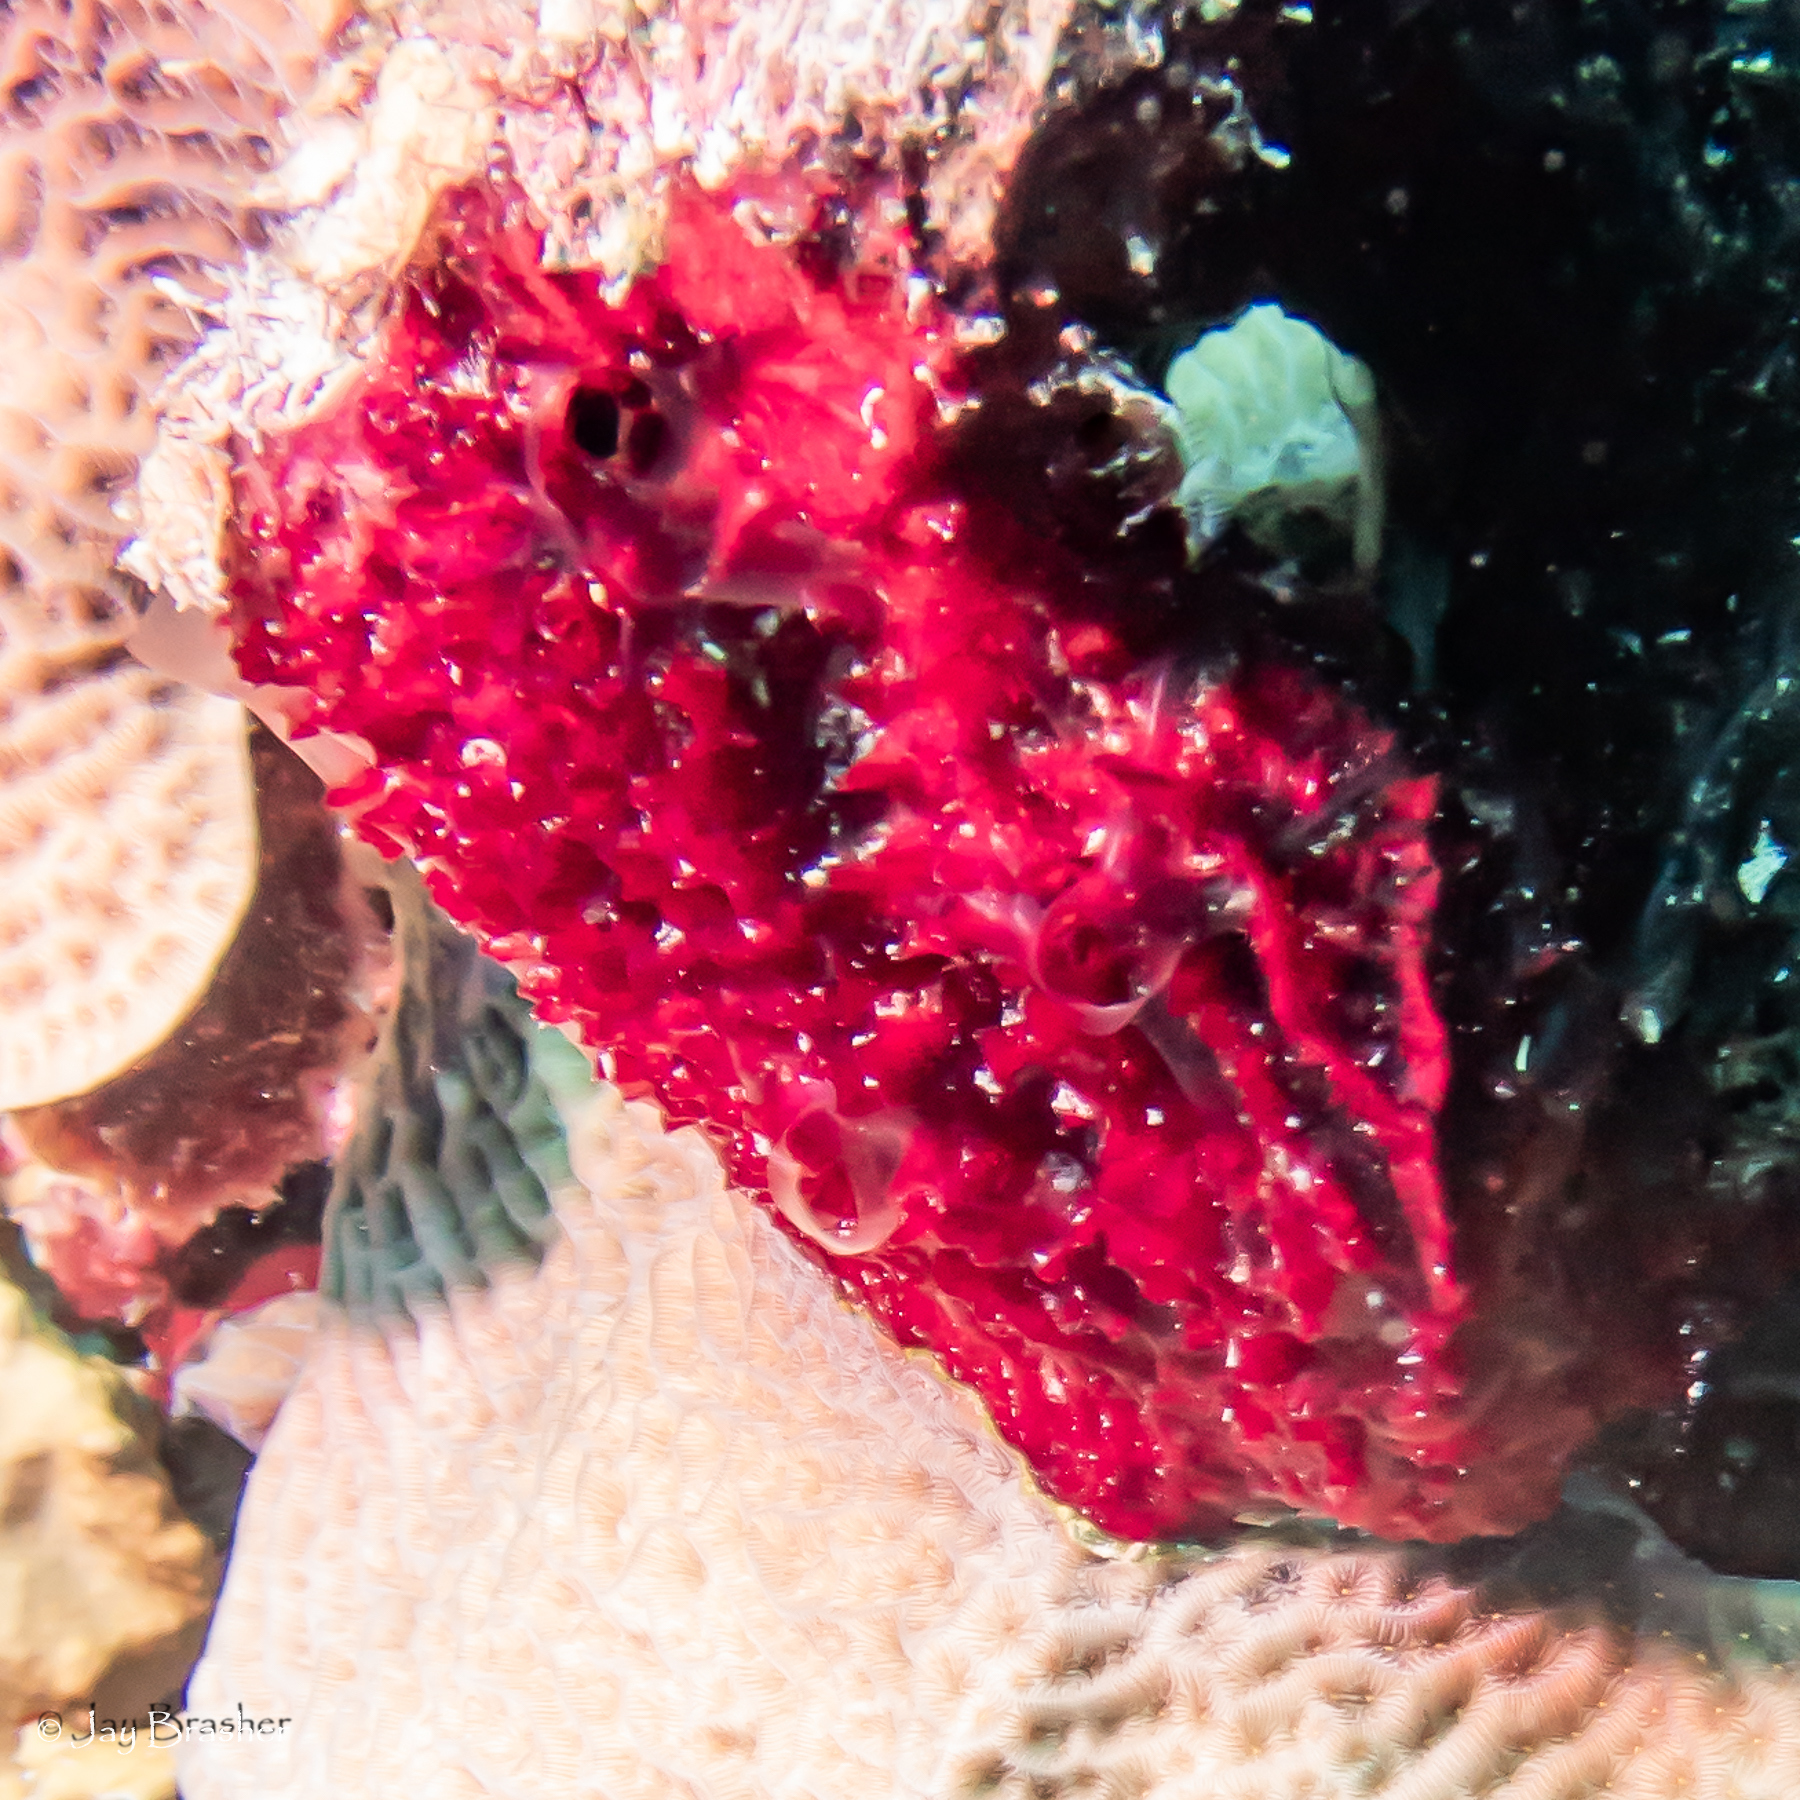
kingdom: Animalia
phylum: Porifera
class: Demospongiae
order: Poecilosclerida
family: Mycalidae
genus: Mycale
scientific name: Mycale laxissima
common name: Strawberry vase sponge
